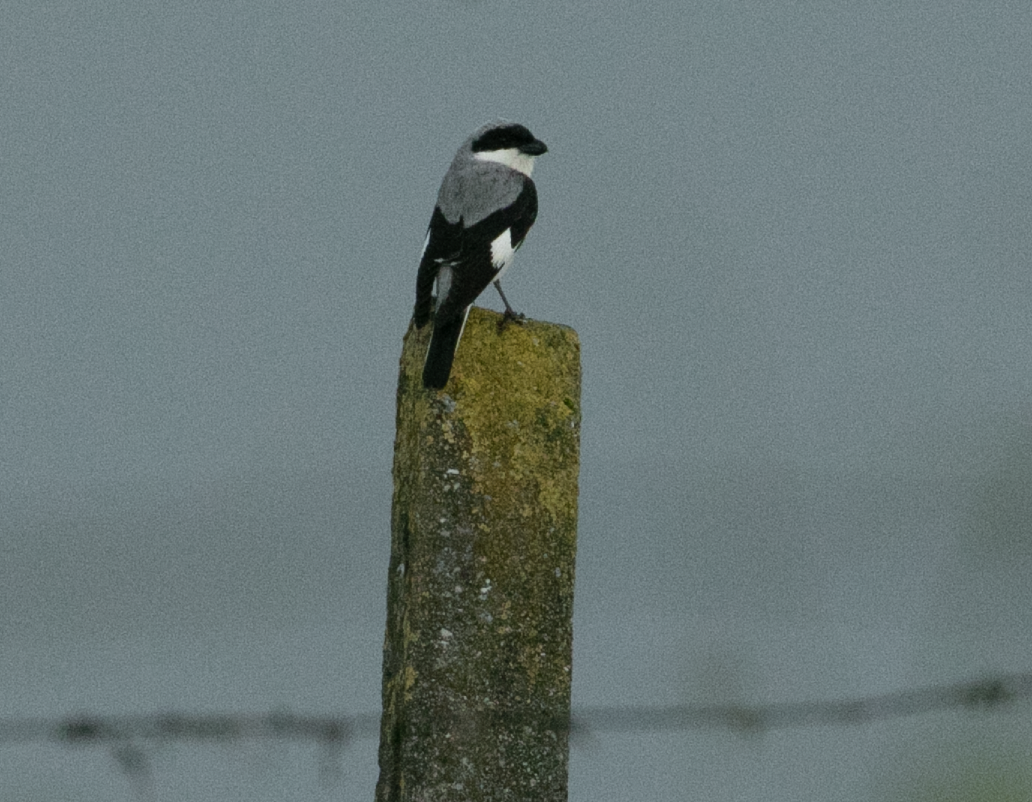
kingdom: Animalia
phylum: Chordata
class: Aves
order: Passeriformes
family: Laniidae
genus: Lanius
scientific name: Lanius minor
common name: Lesser grey shrike
